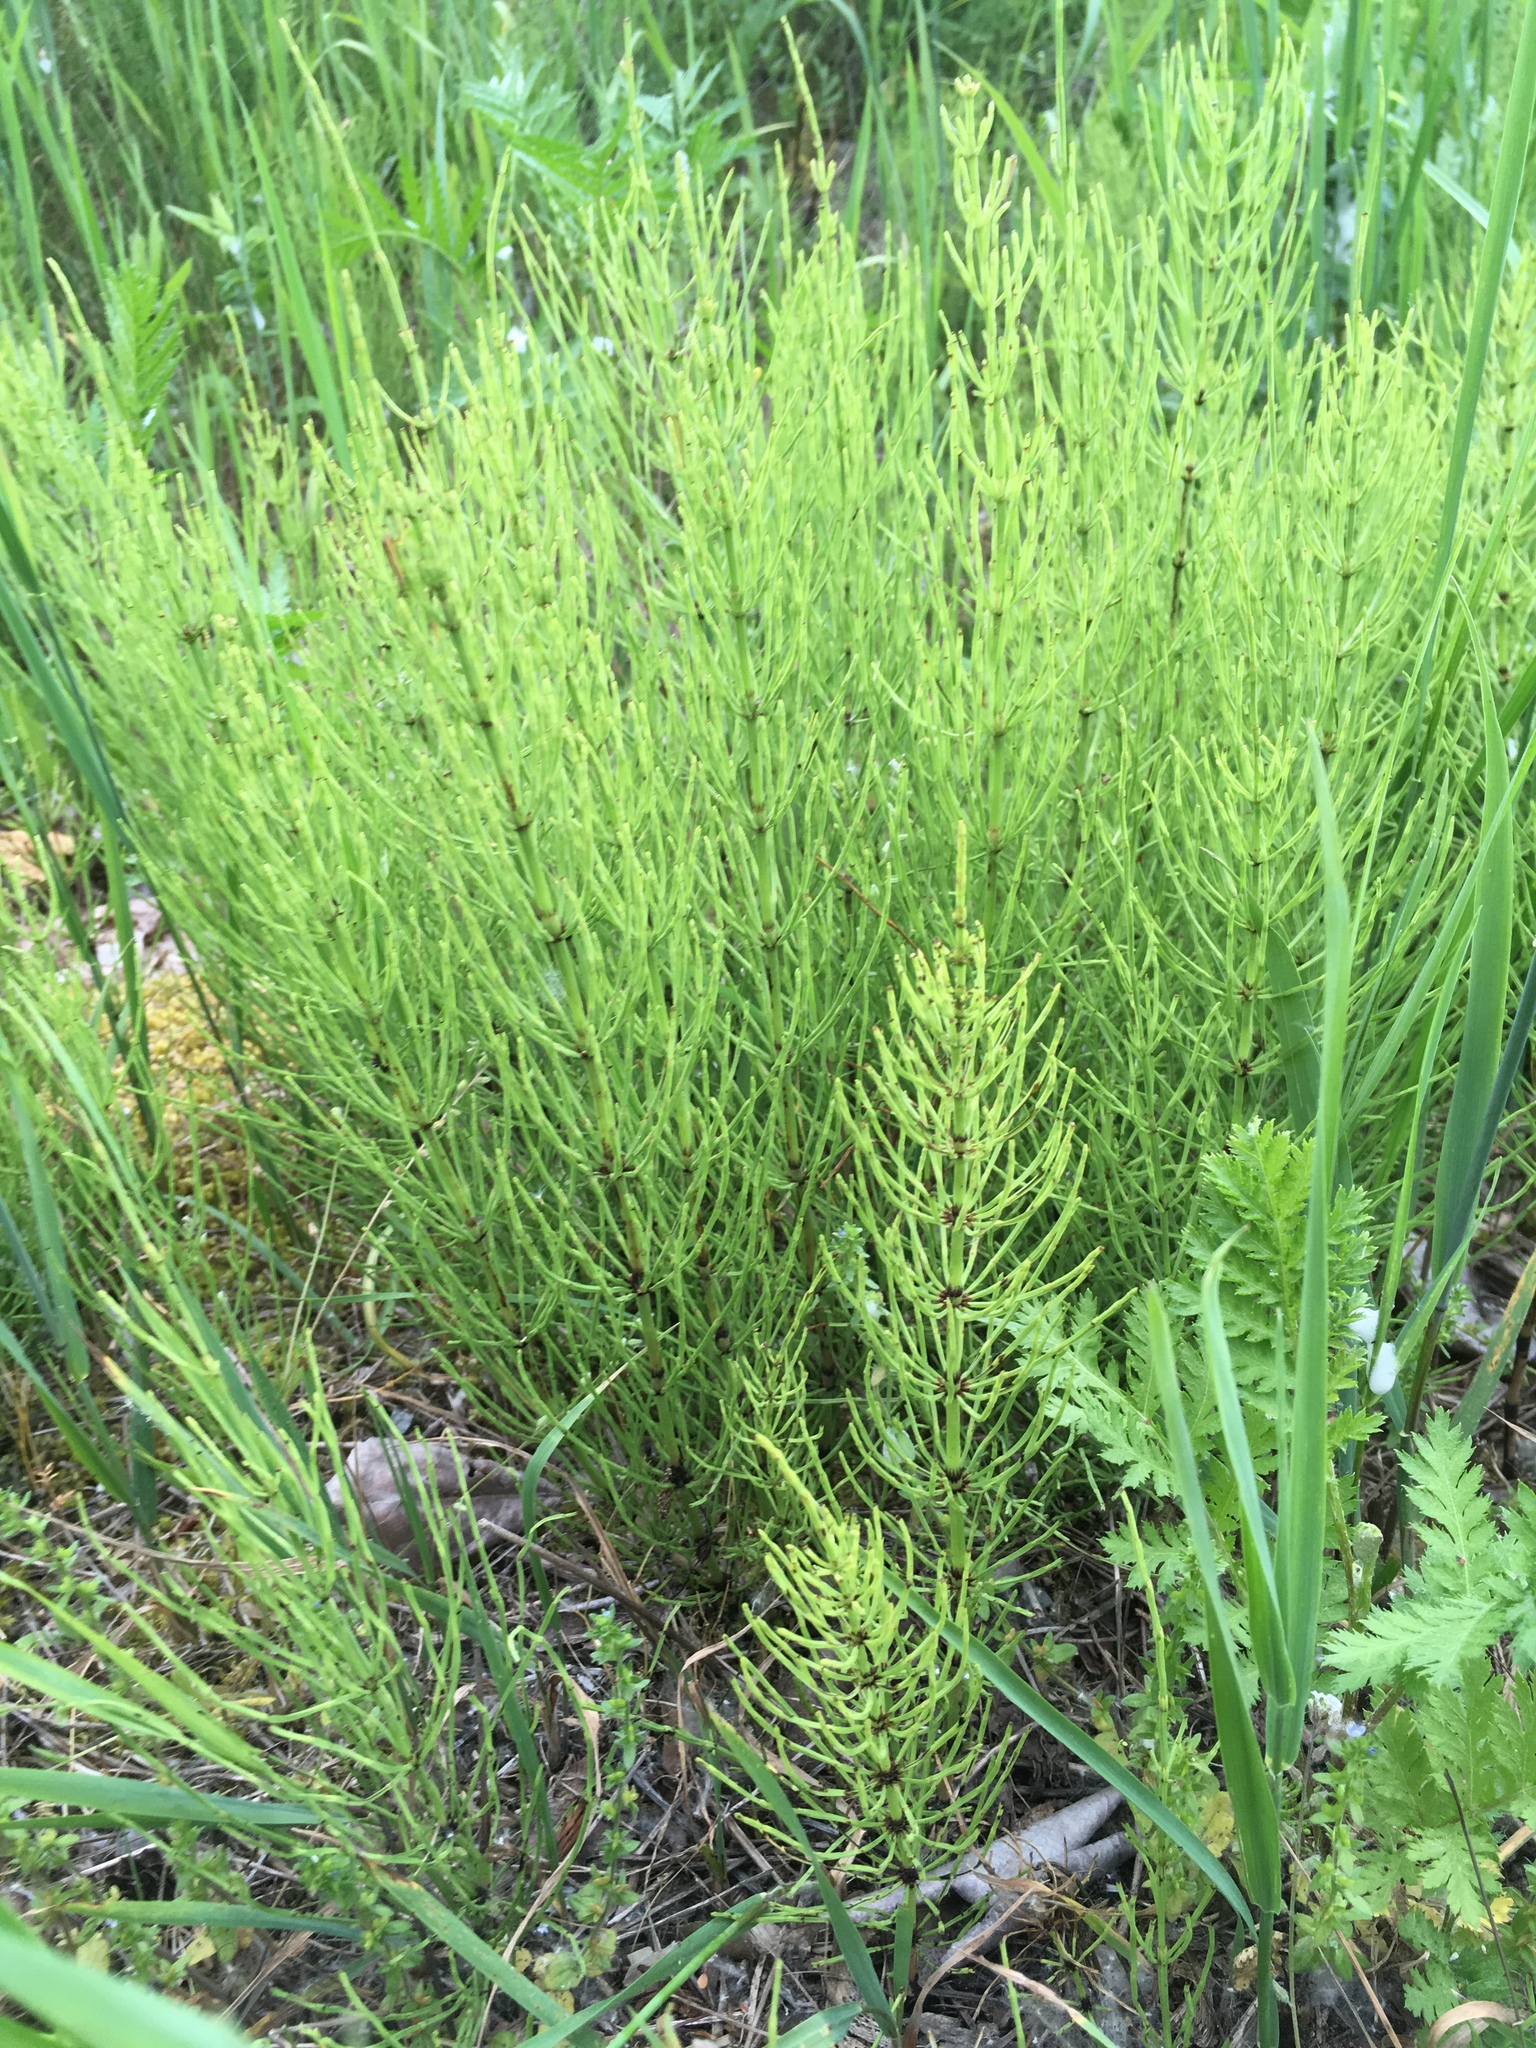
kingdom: Plantae
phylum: Tracheophyta
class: Polypodiopsida
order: Equisetales
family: Equisetaceae
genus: Equisetum
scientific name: Equisetum arvense
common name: Field horsetail
